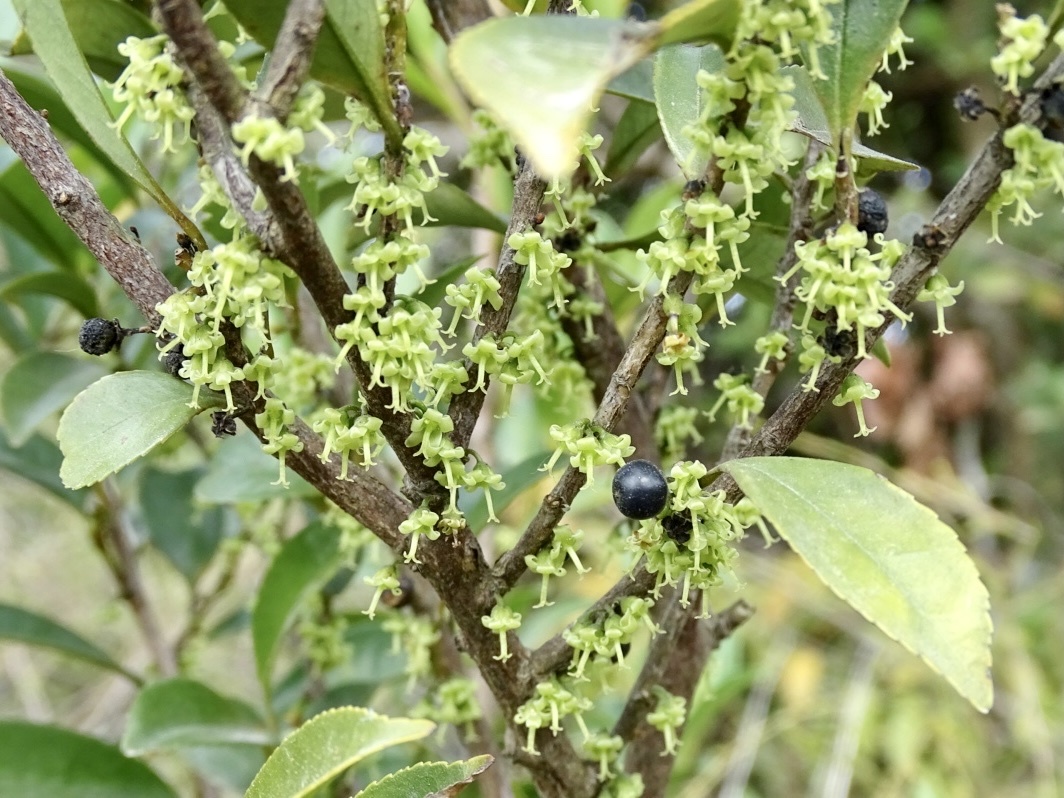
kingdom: Plantae
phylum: Tracheophyta
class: Magnoliopsida
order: Ericales
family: Pentaphylacaceae
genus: Eurya
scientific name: Eurya loquaiana
